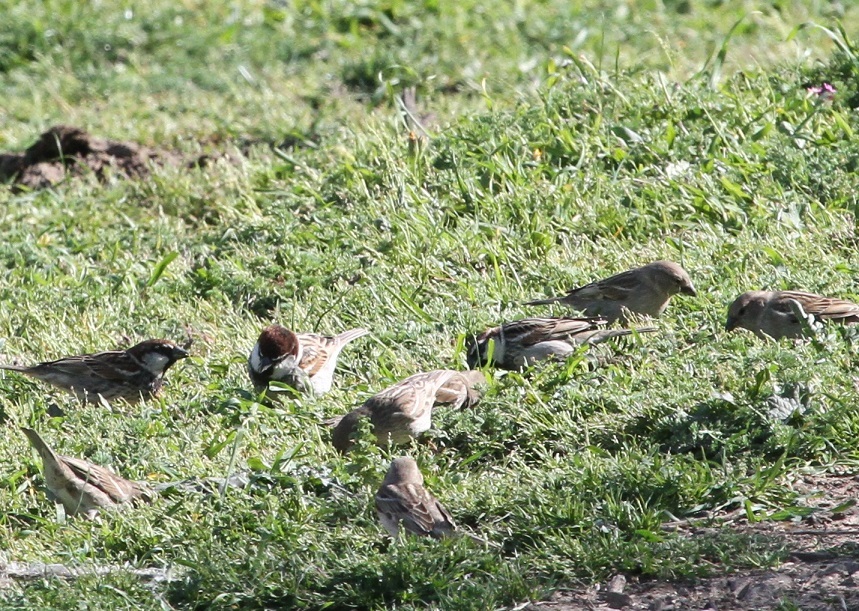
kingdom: Animalia
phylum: Chordata
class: Aves
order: Passeriformes
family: Passeridae
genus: Passer
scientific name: Passer hispaniolensis
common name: Spanish sparrow
